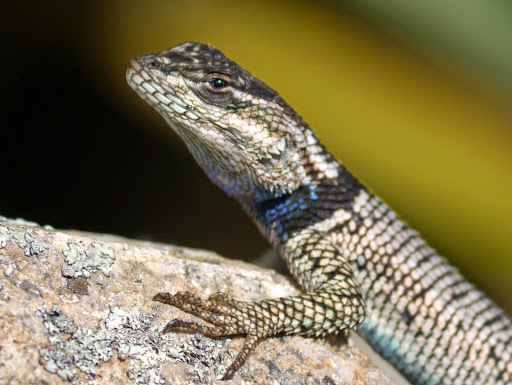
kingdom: Animalia
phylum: Chordata
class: Squamata
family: Phrynosomatidae
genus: Sceloporus
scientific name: Sceloporus jarrovii
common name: Yarrow's spiny lizard
